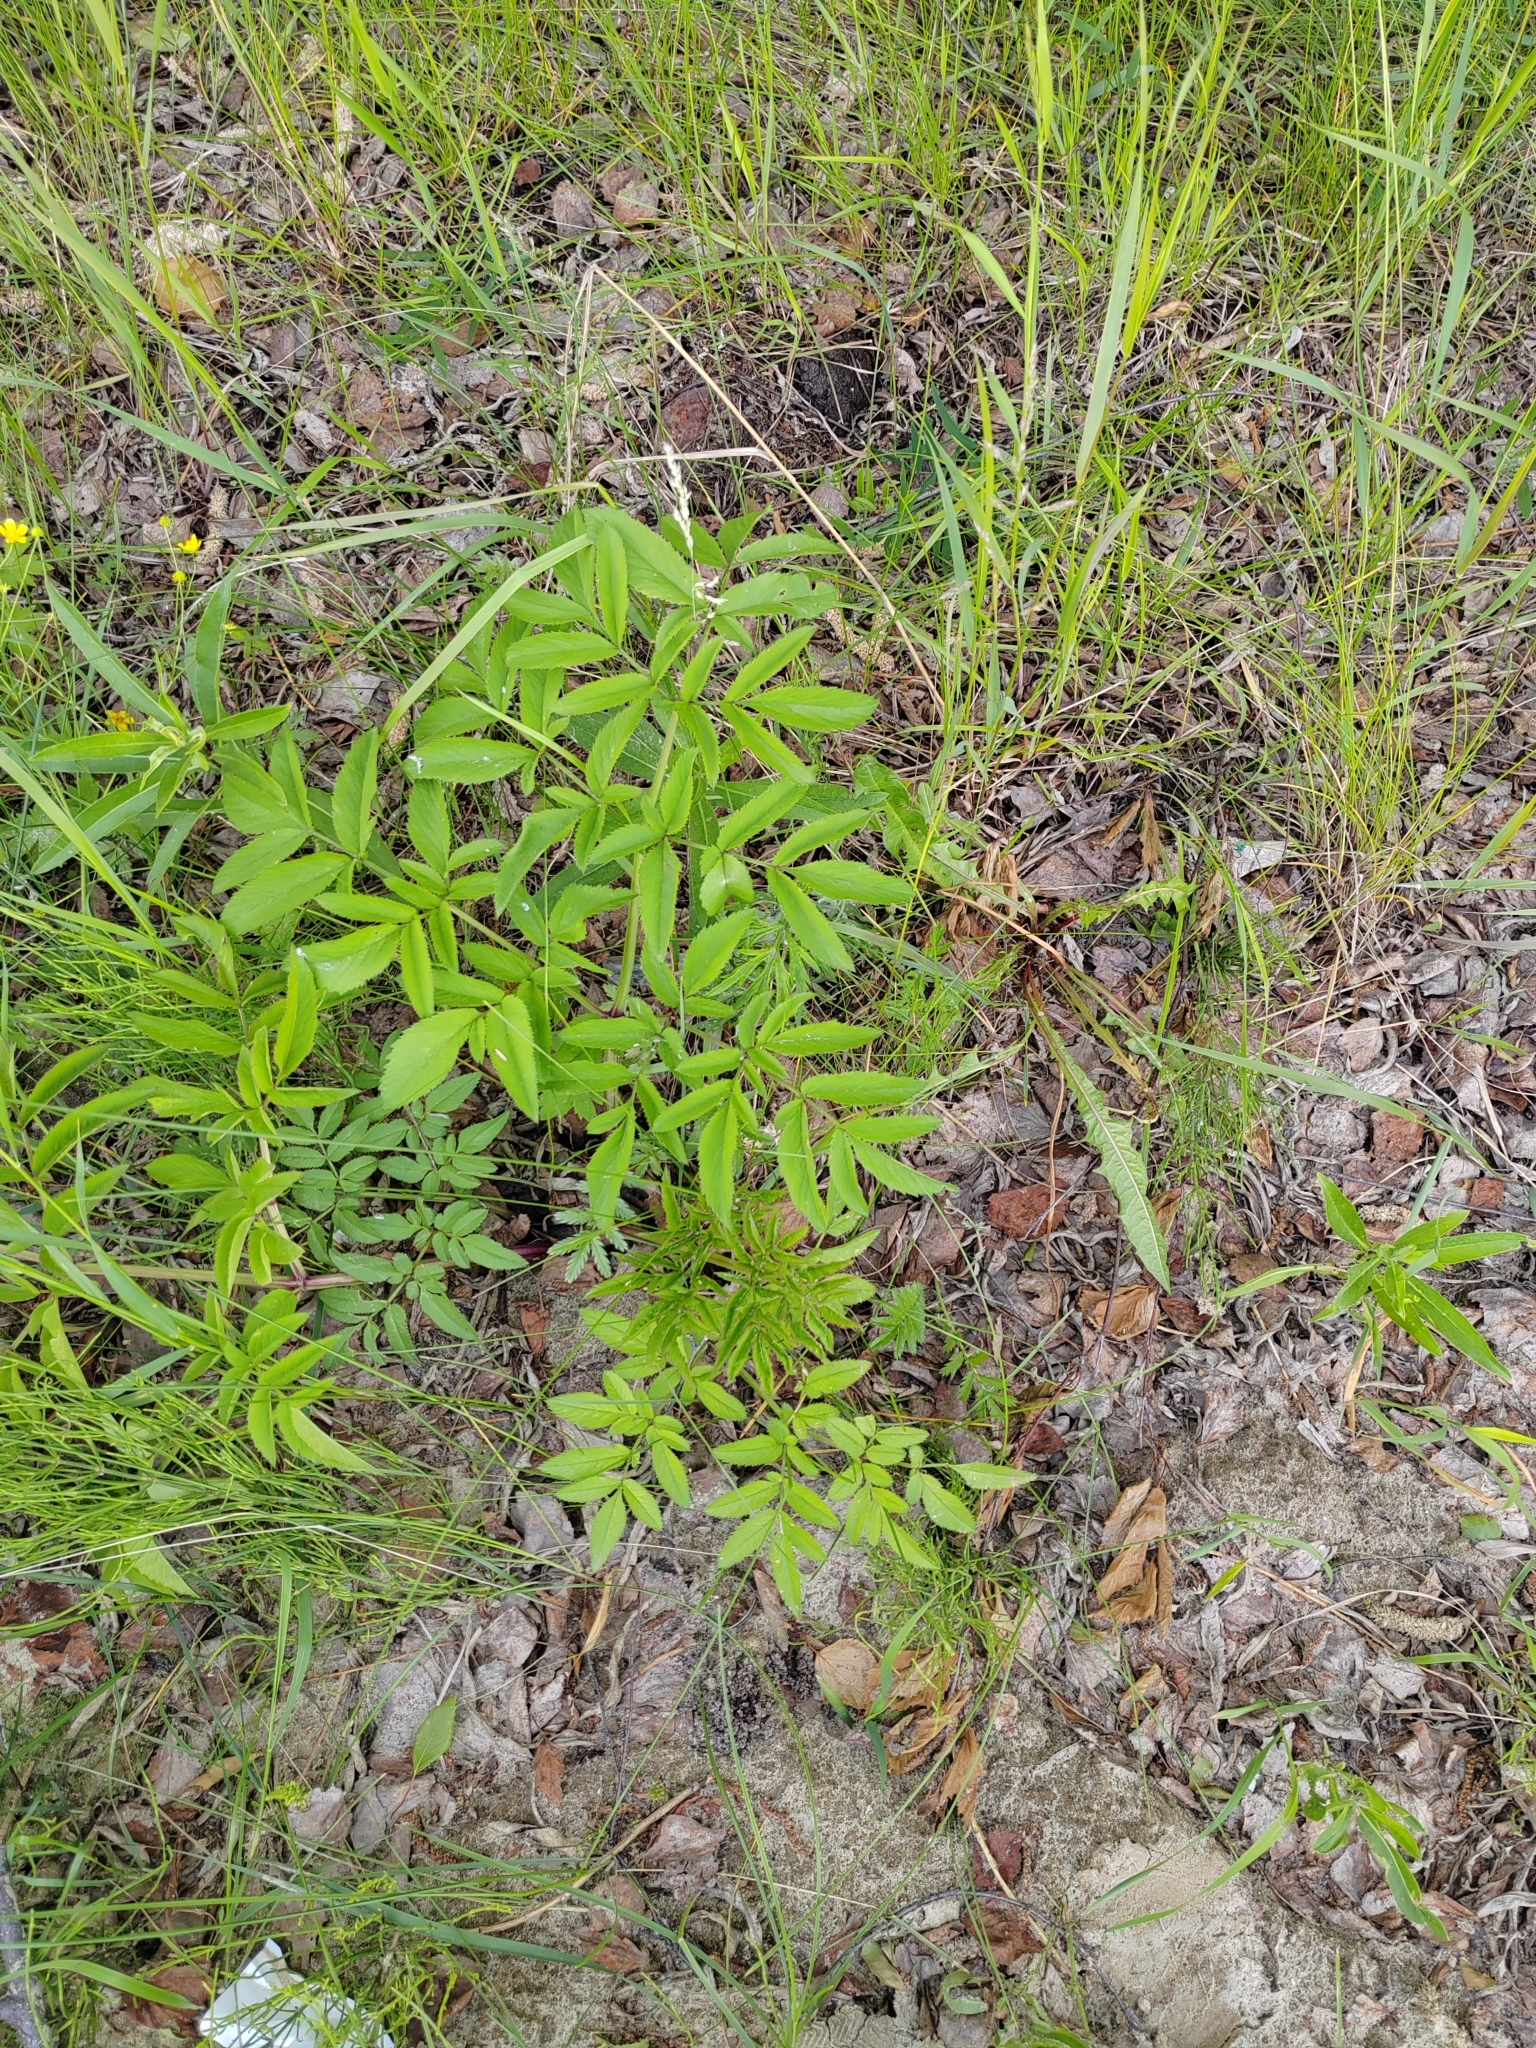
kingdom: Plantae
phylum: Tracheophyta
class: Magnoliopsida
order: Apiales
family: Apiaceae
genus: Angelica
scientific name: Angelica sylvestris
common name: Wild angelica
